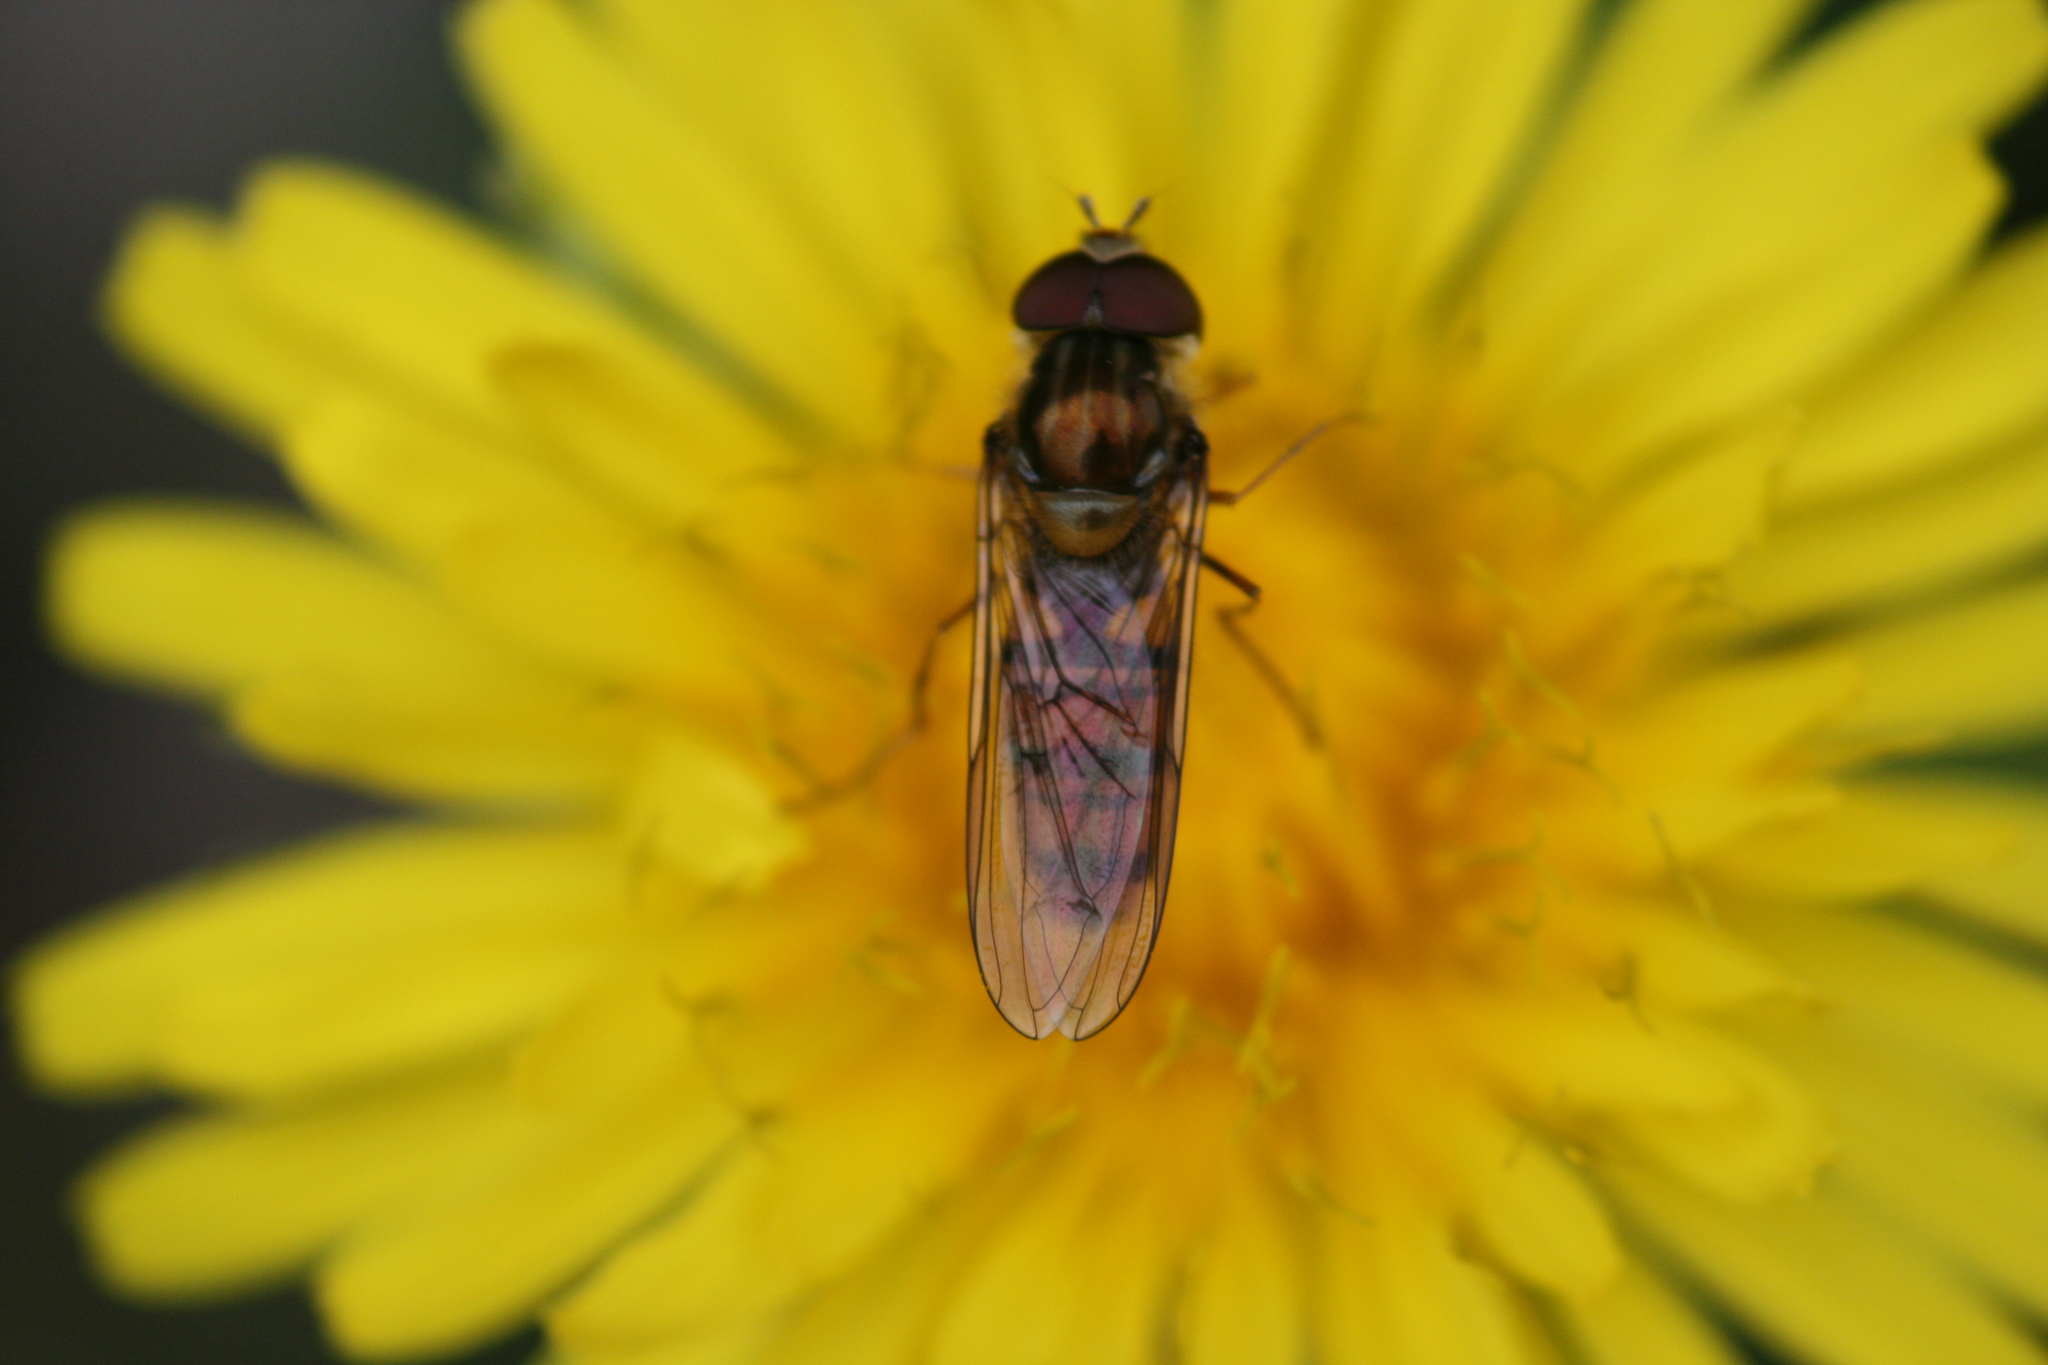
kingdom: Animalia
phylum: Arthropoda
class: Insecta
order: Diptera
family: Syrphidae
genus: Episyrphus
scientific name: Episyrphus balteatus
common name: Marmalade hoverfly
